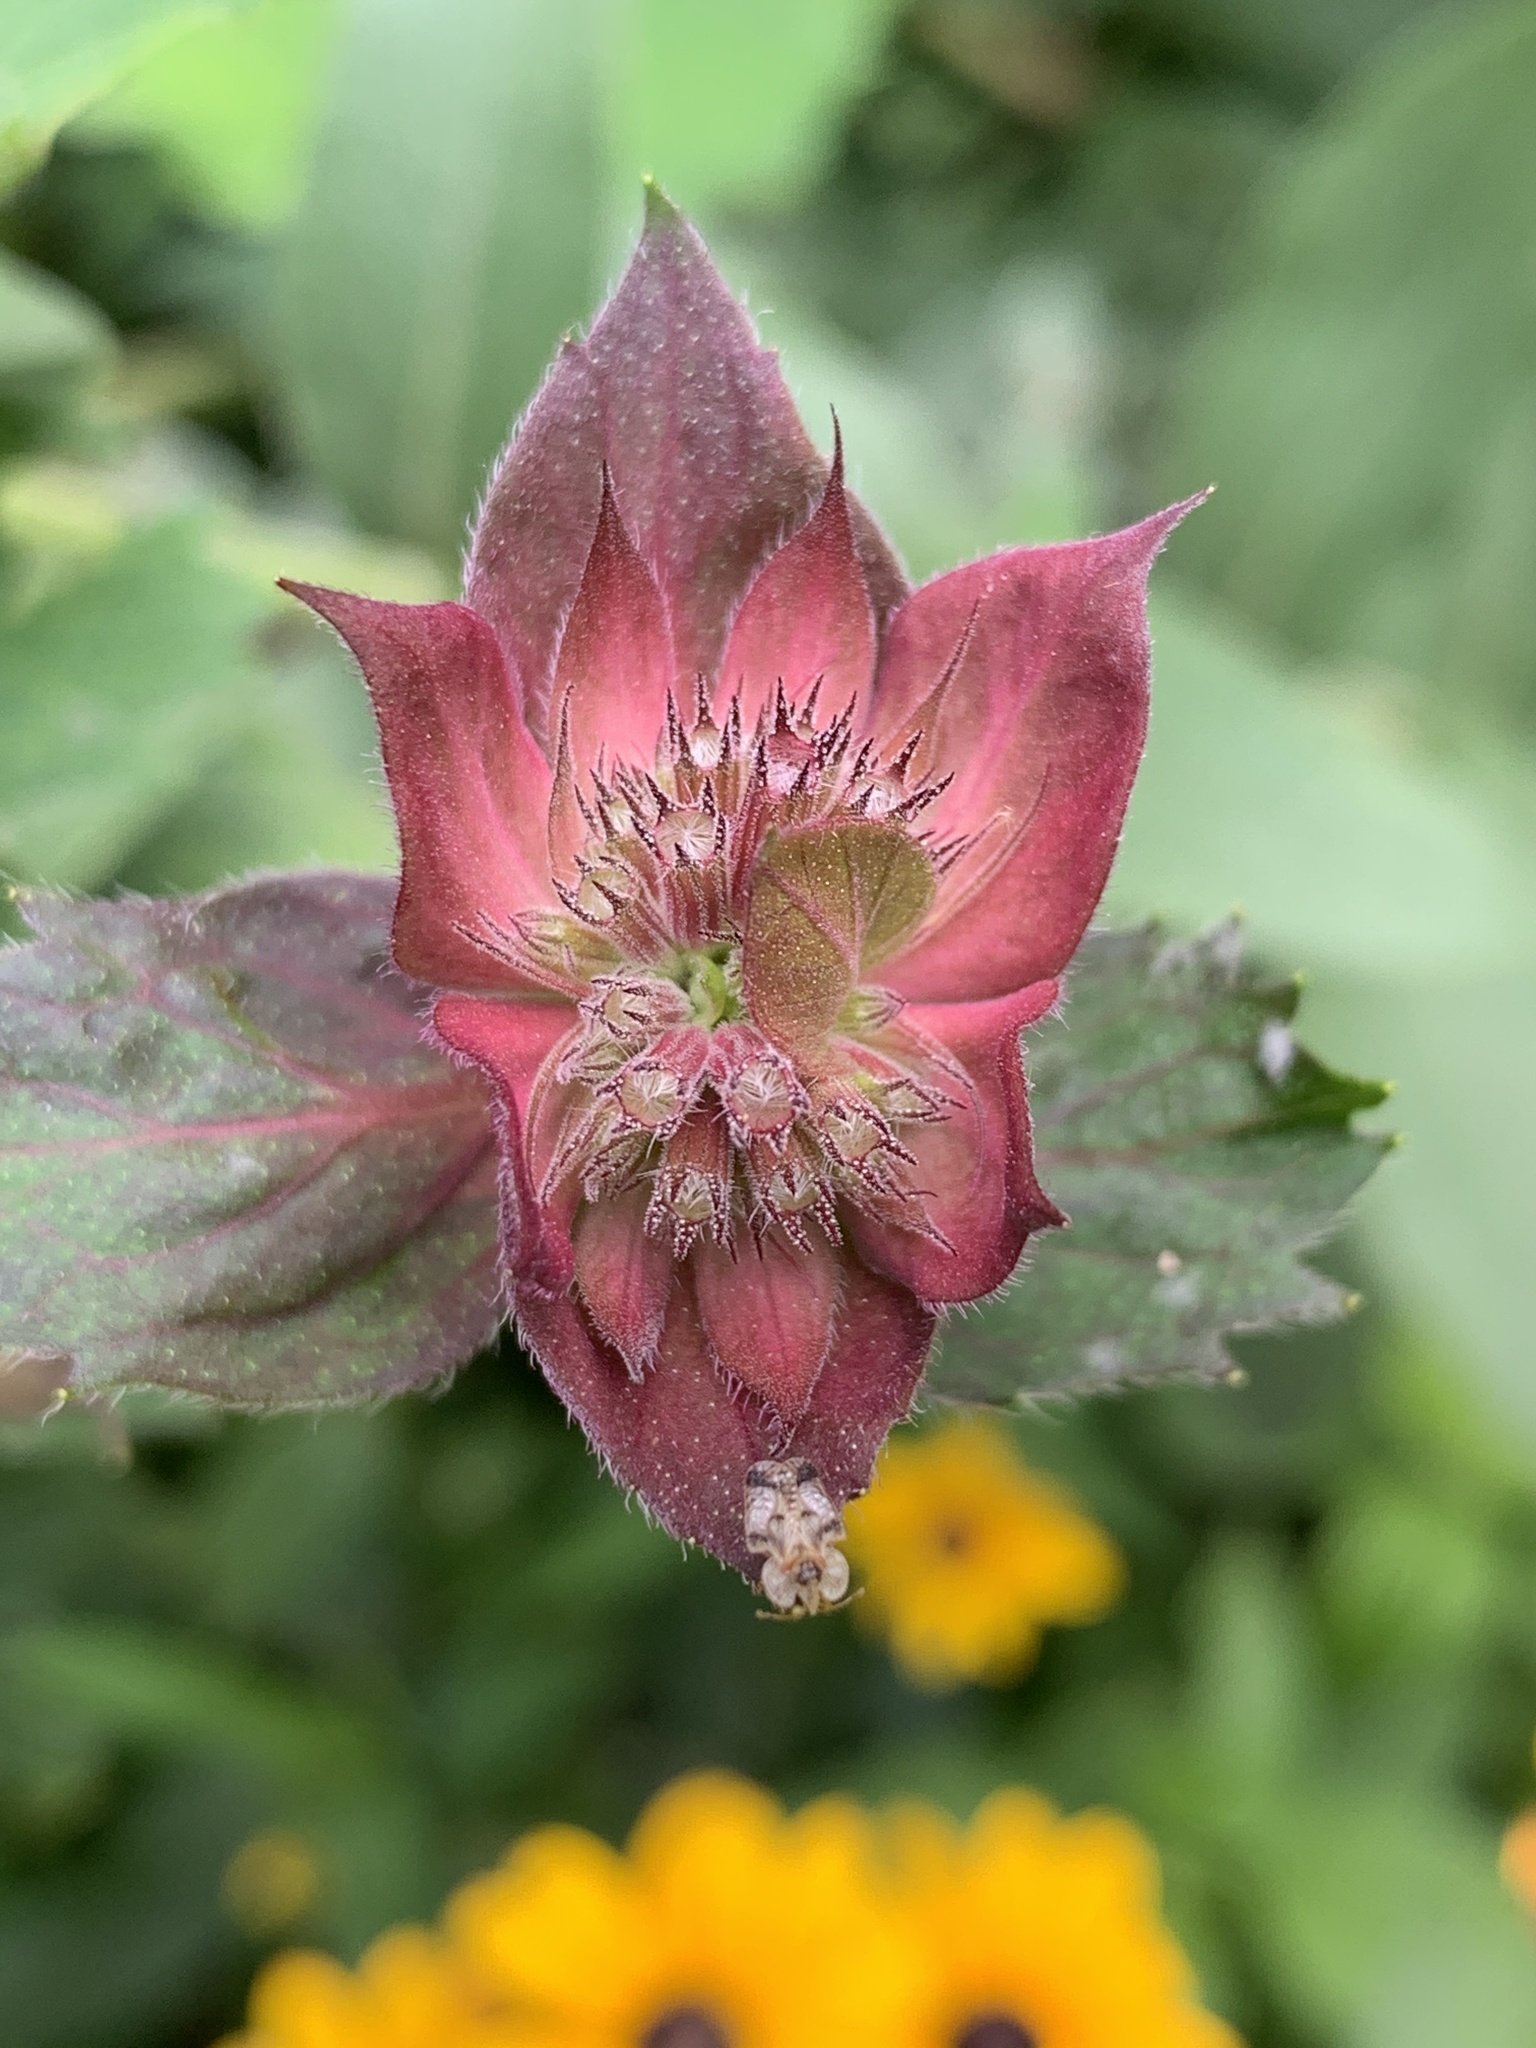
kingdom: Plantae
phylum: Tracheophyta
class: Magnoliopsida
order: Lamiales
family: Lamiaceae
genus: Monarda
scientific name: Monarda didyma
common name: Beebalm
